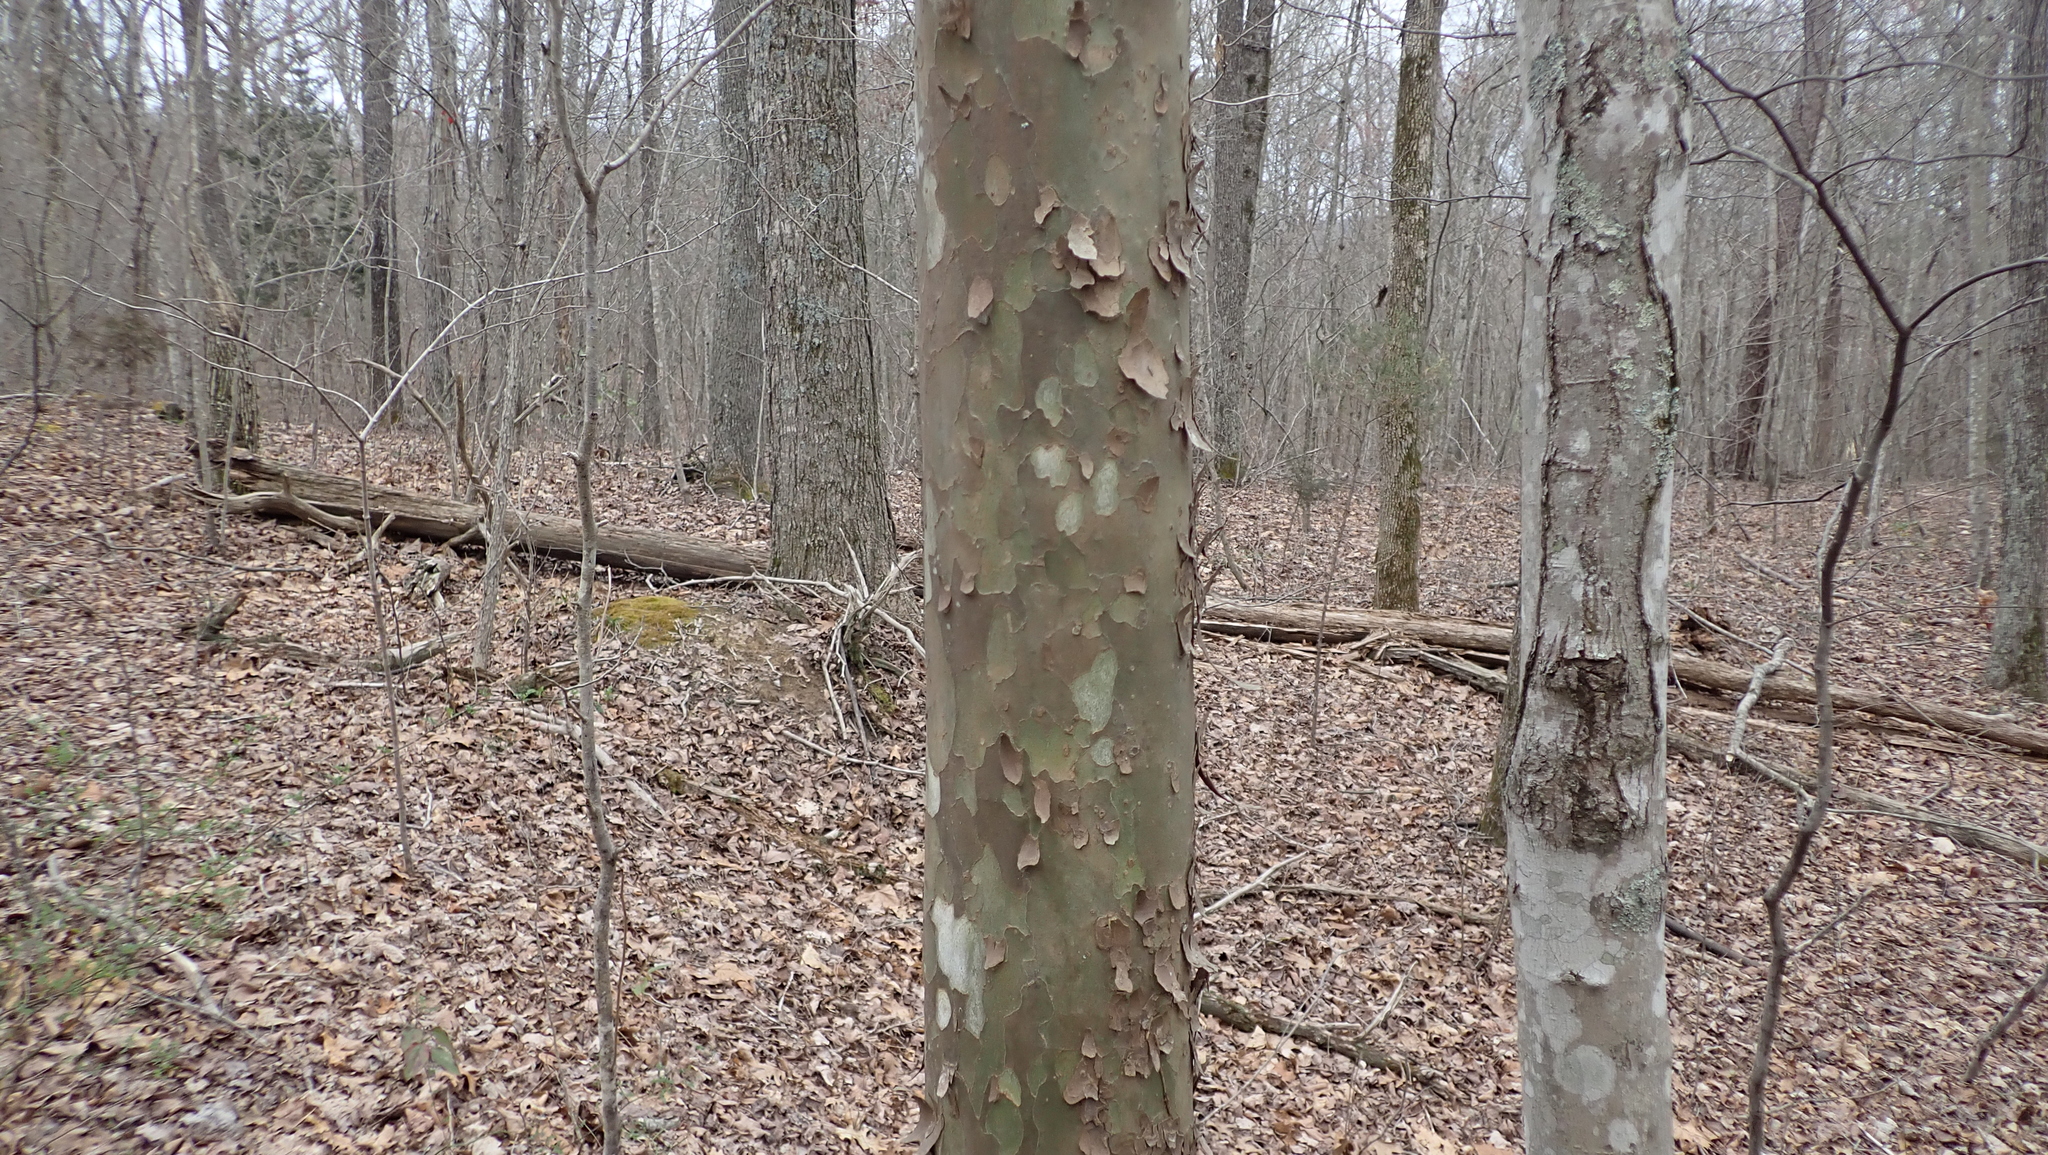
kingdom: Plantae
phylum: Tracheophyta
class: Magnoliopsida
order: Proteales
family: Platanaceae
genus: Platanus
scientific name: Platanus occidentalis
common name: American sycamore
